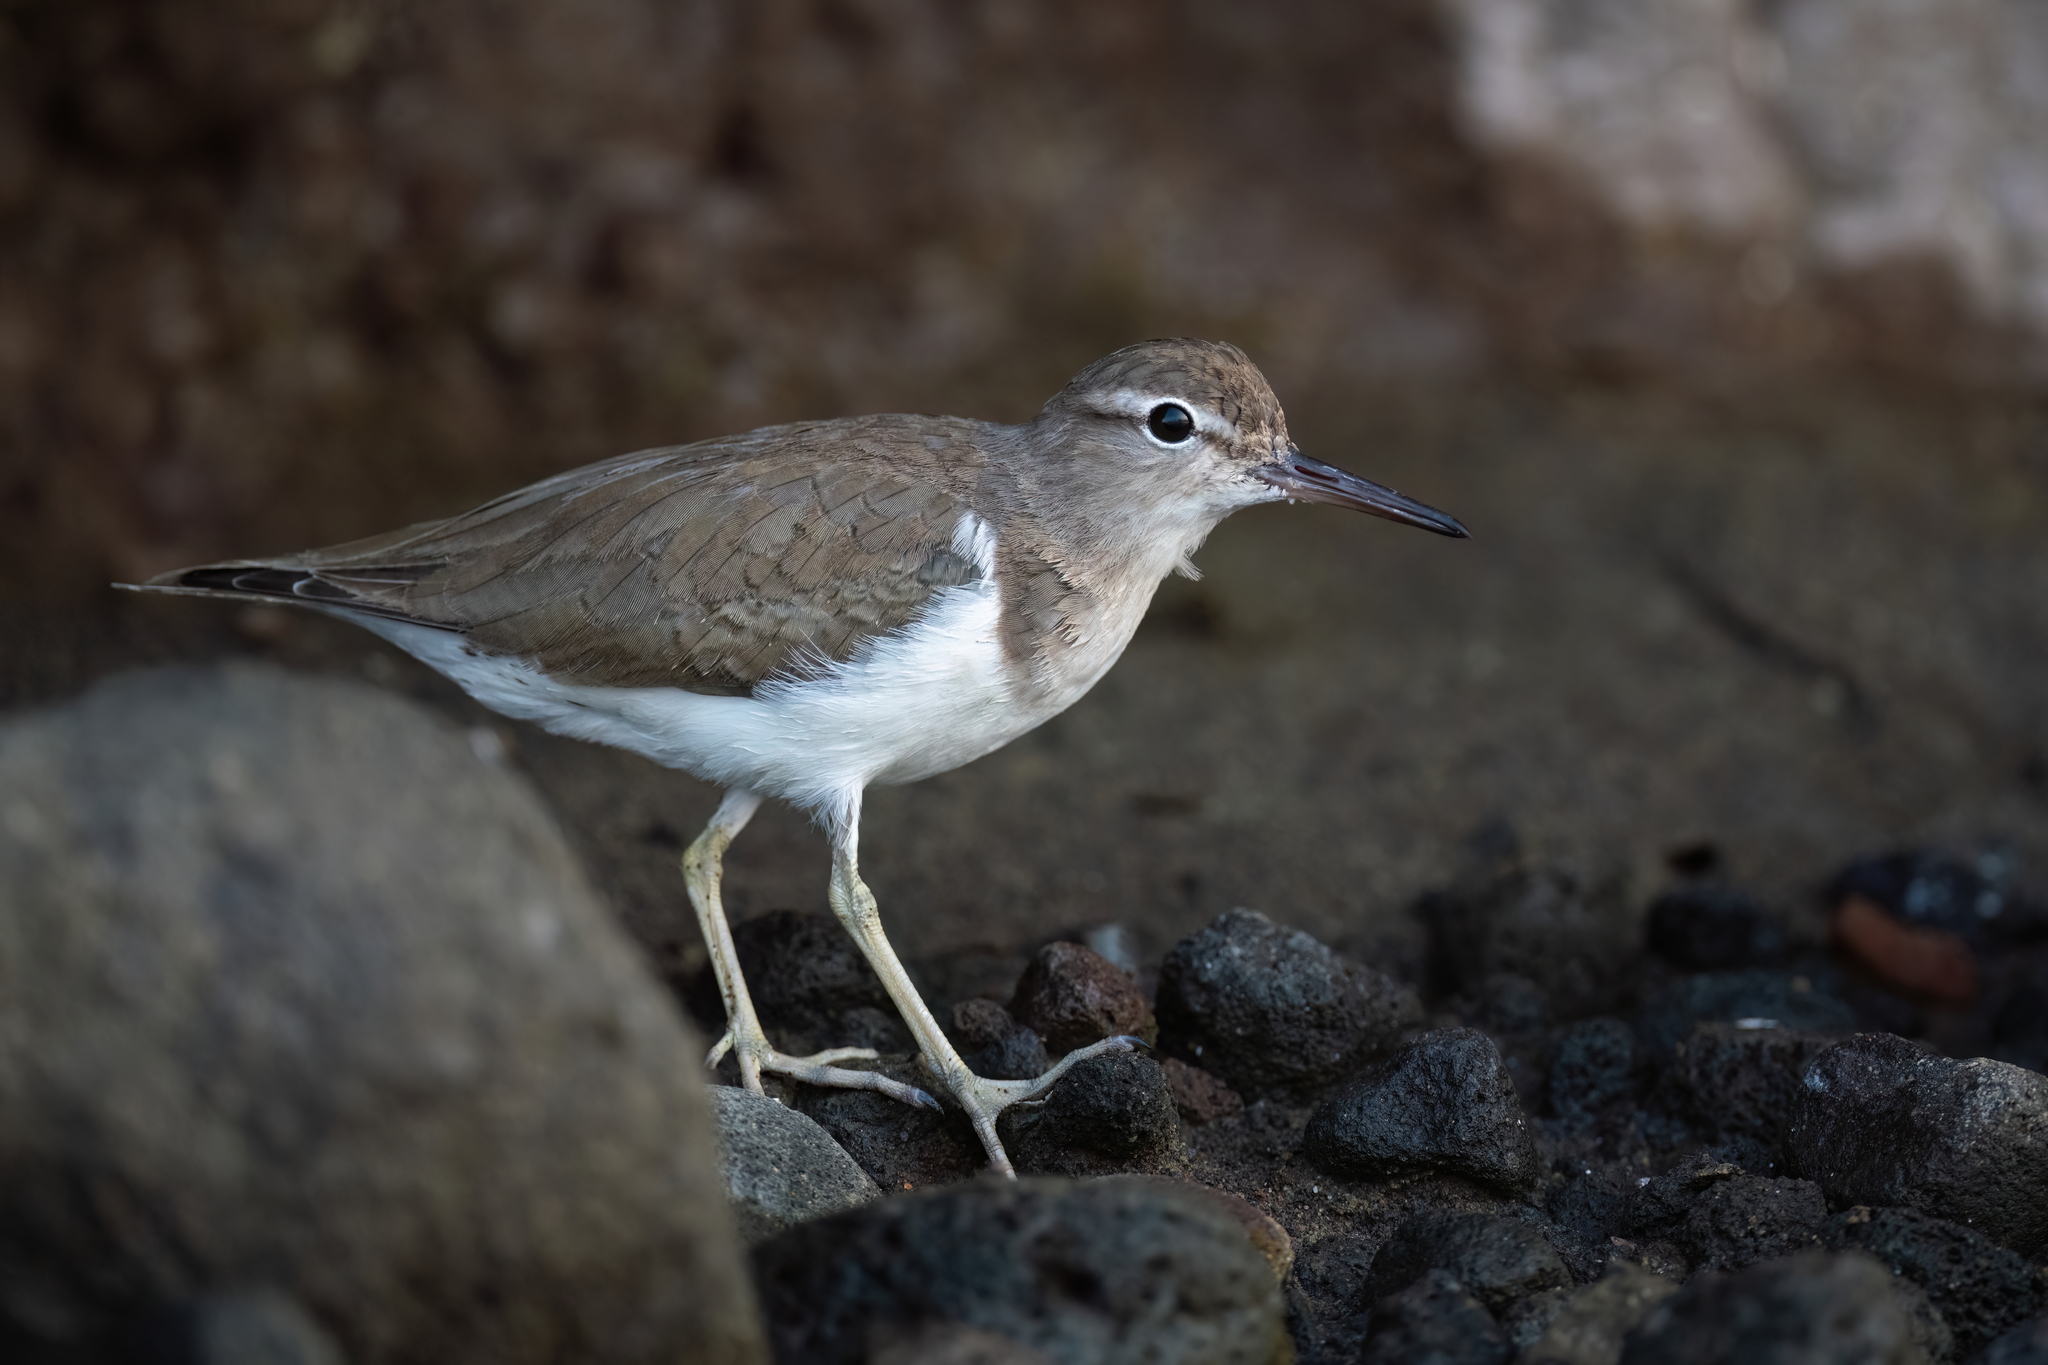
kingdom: Animalia
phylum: Chordata
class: Aves
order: Charadriiformes
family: Scolopacidae
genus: Actitis
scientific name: Actitis macularius
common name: Spotted sandpiper
